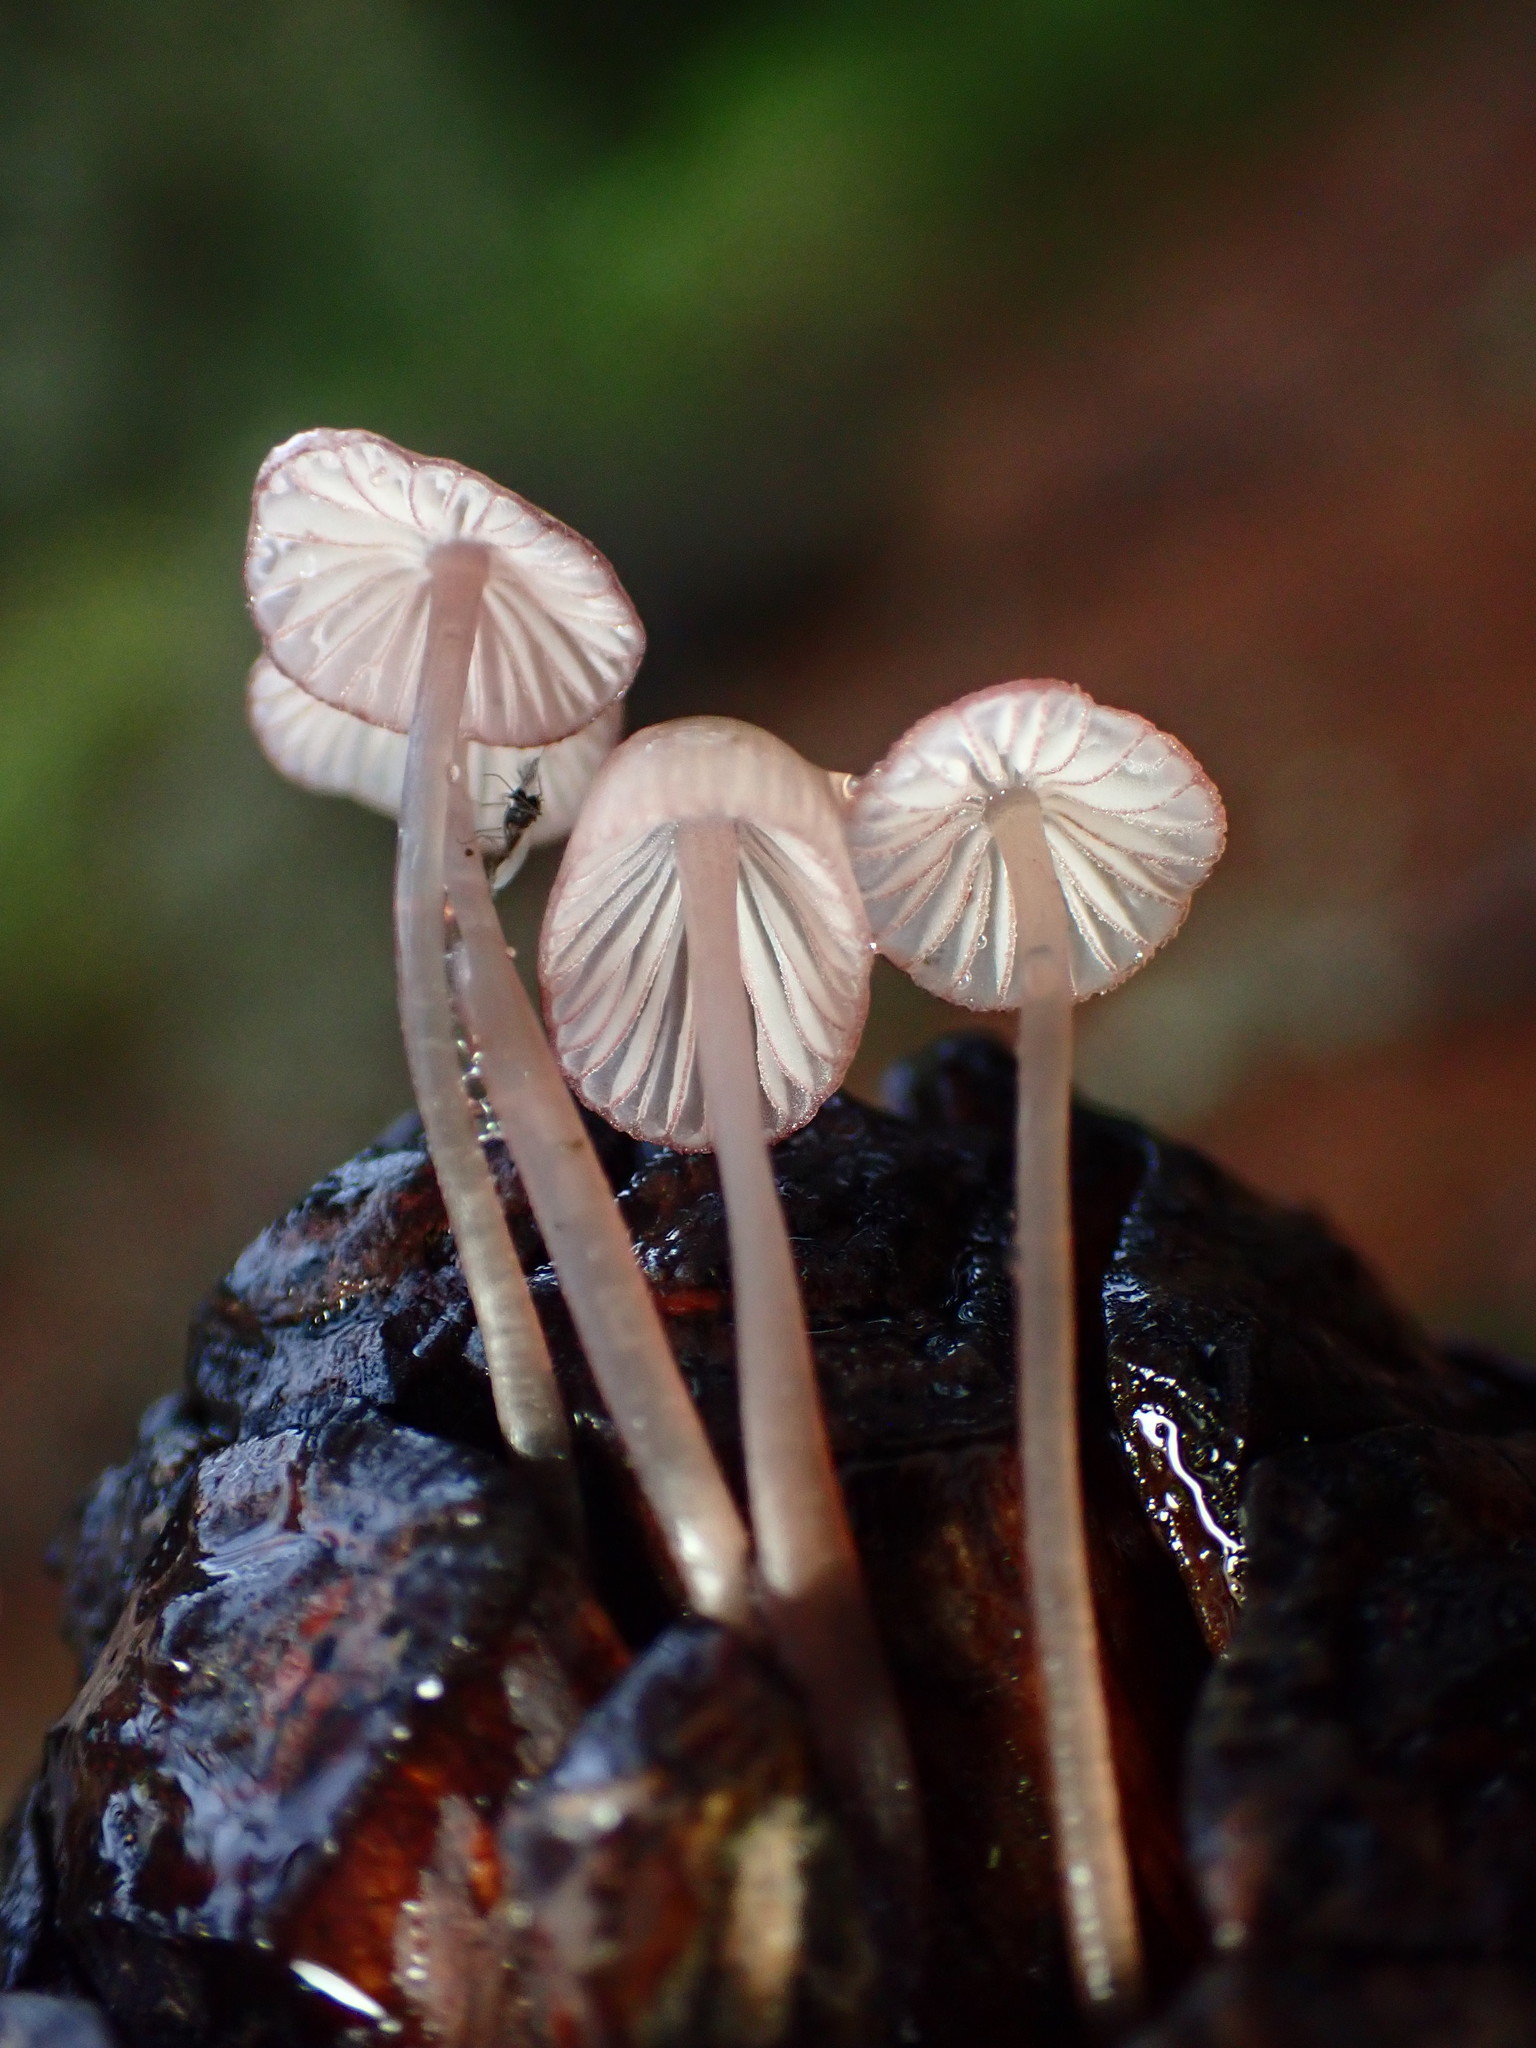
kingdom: Fungi
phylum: Basidiomycota
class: Agaricomycetes
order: Agaricales
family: Mycenaceae
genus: Mycena
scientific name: Mycena purpureofusca
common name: Purple edge bonnet
